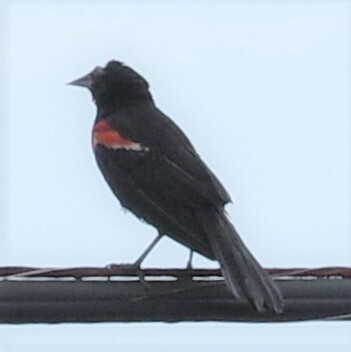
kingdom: Animalia
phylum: Chordata
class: Aves
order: Passeriformes
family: Icteridae
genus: Agelaius
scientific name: Agelaius phoeniceus
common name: Red-winged blackbird
